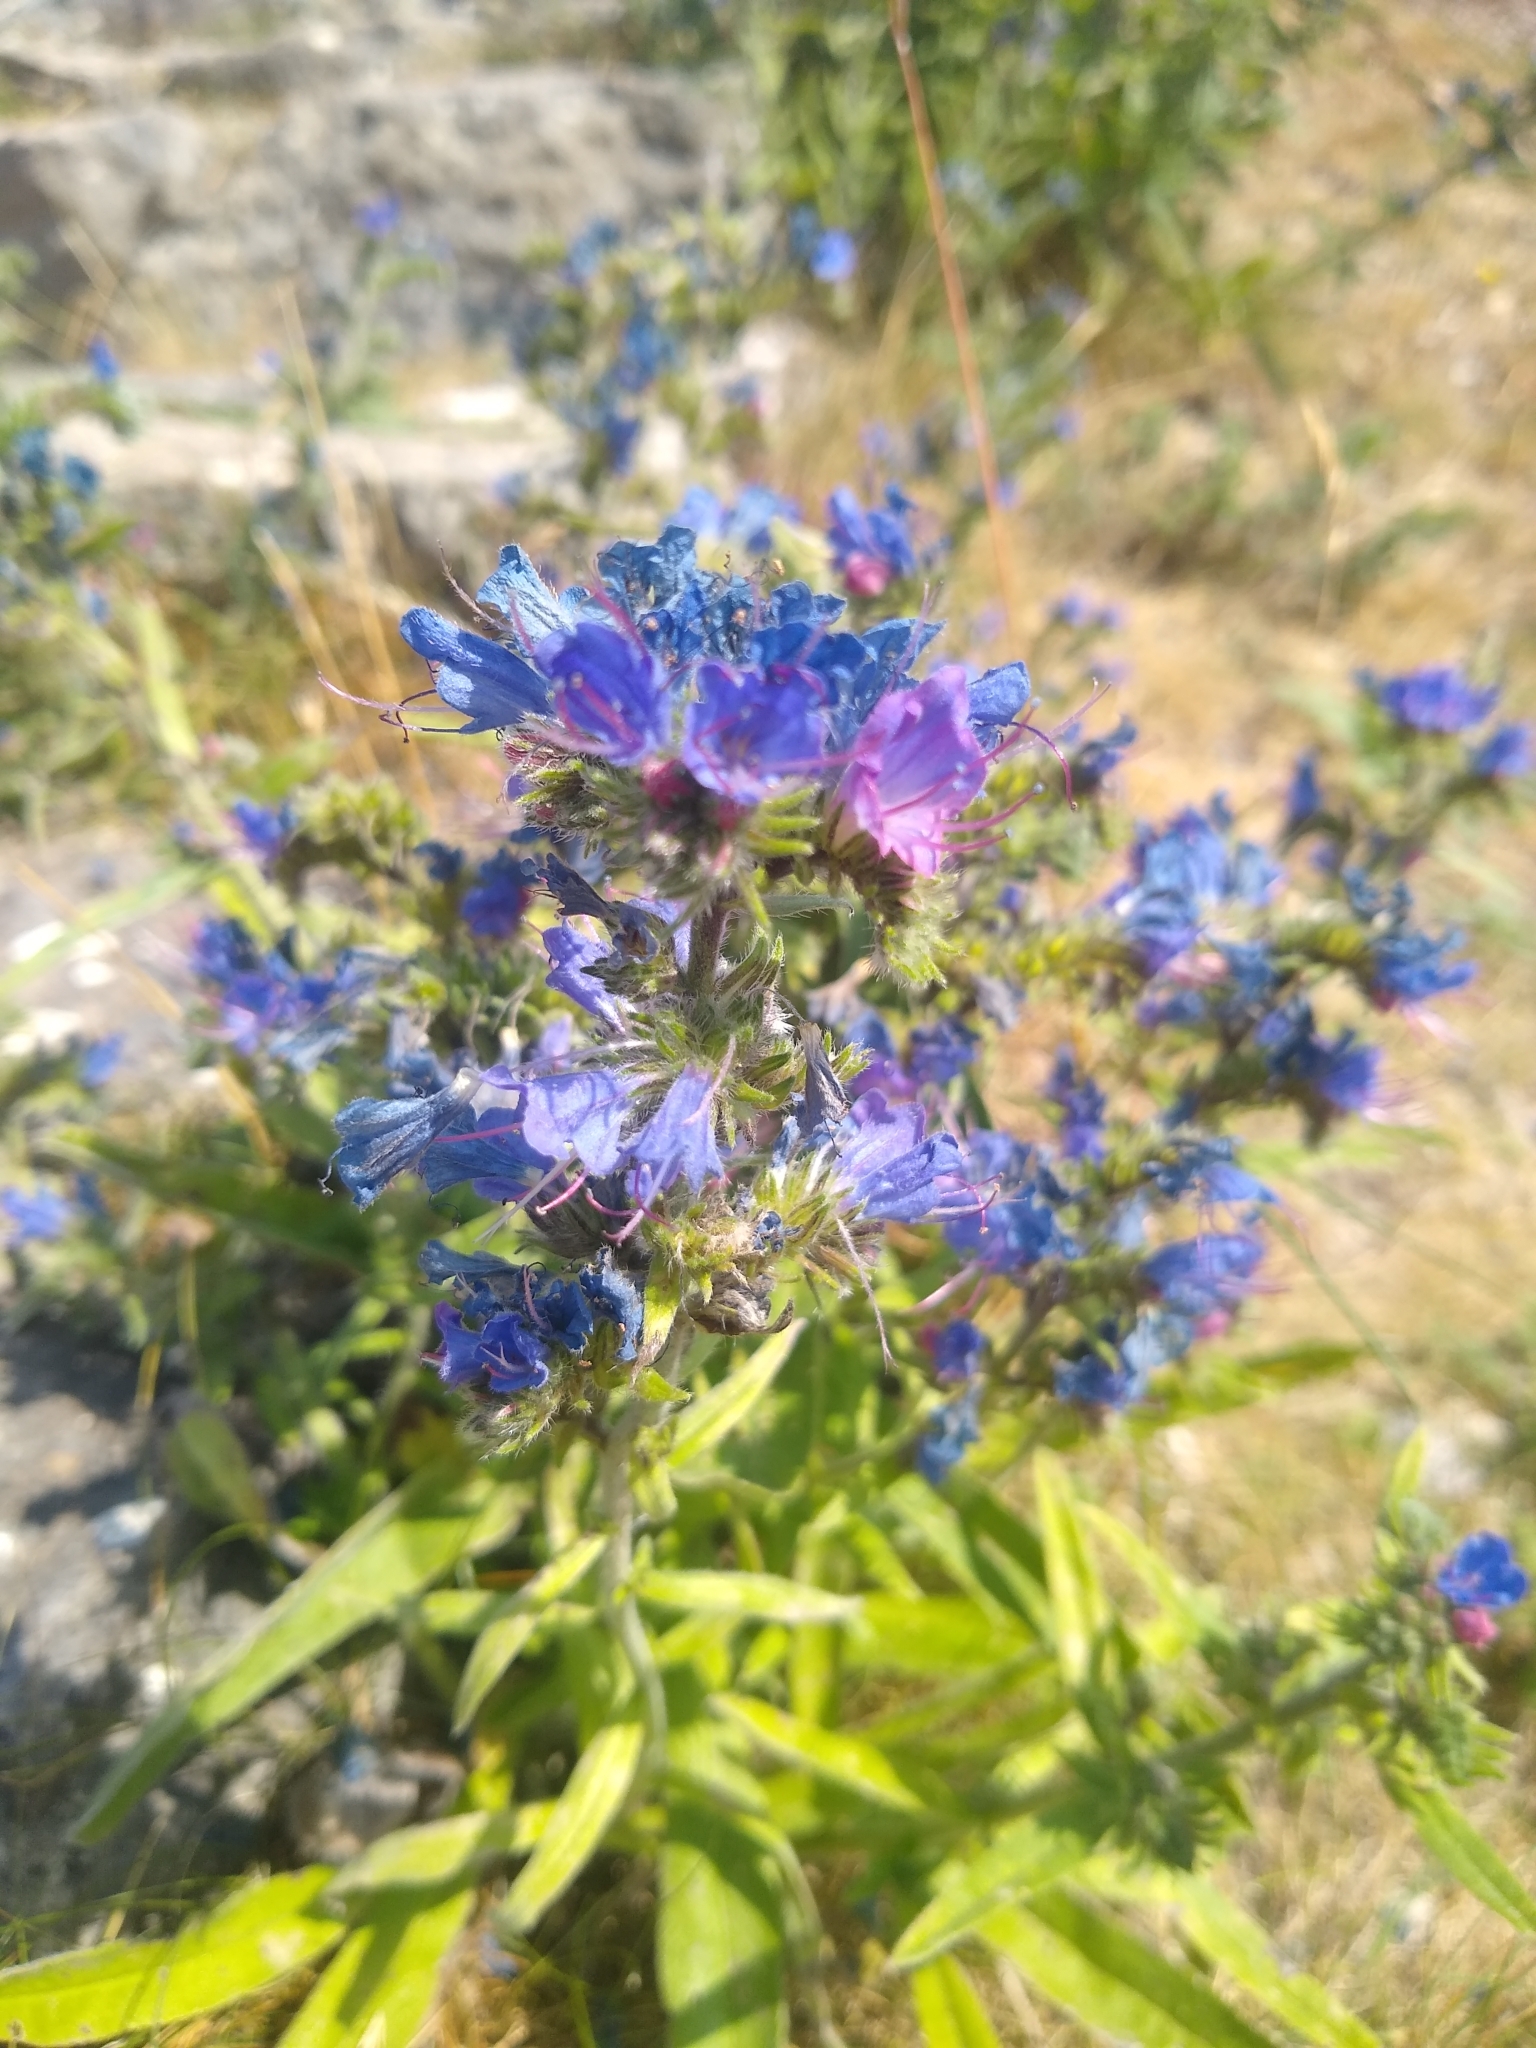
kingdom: Plantae
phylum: Tracheophyta
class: Magnoliopsida
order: Boraginales
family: Boraginaceae
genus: Echium
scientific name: Echium vulgare
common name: Common viper's bugloss
